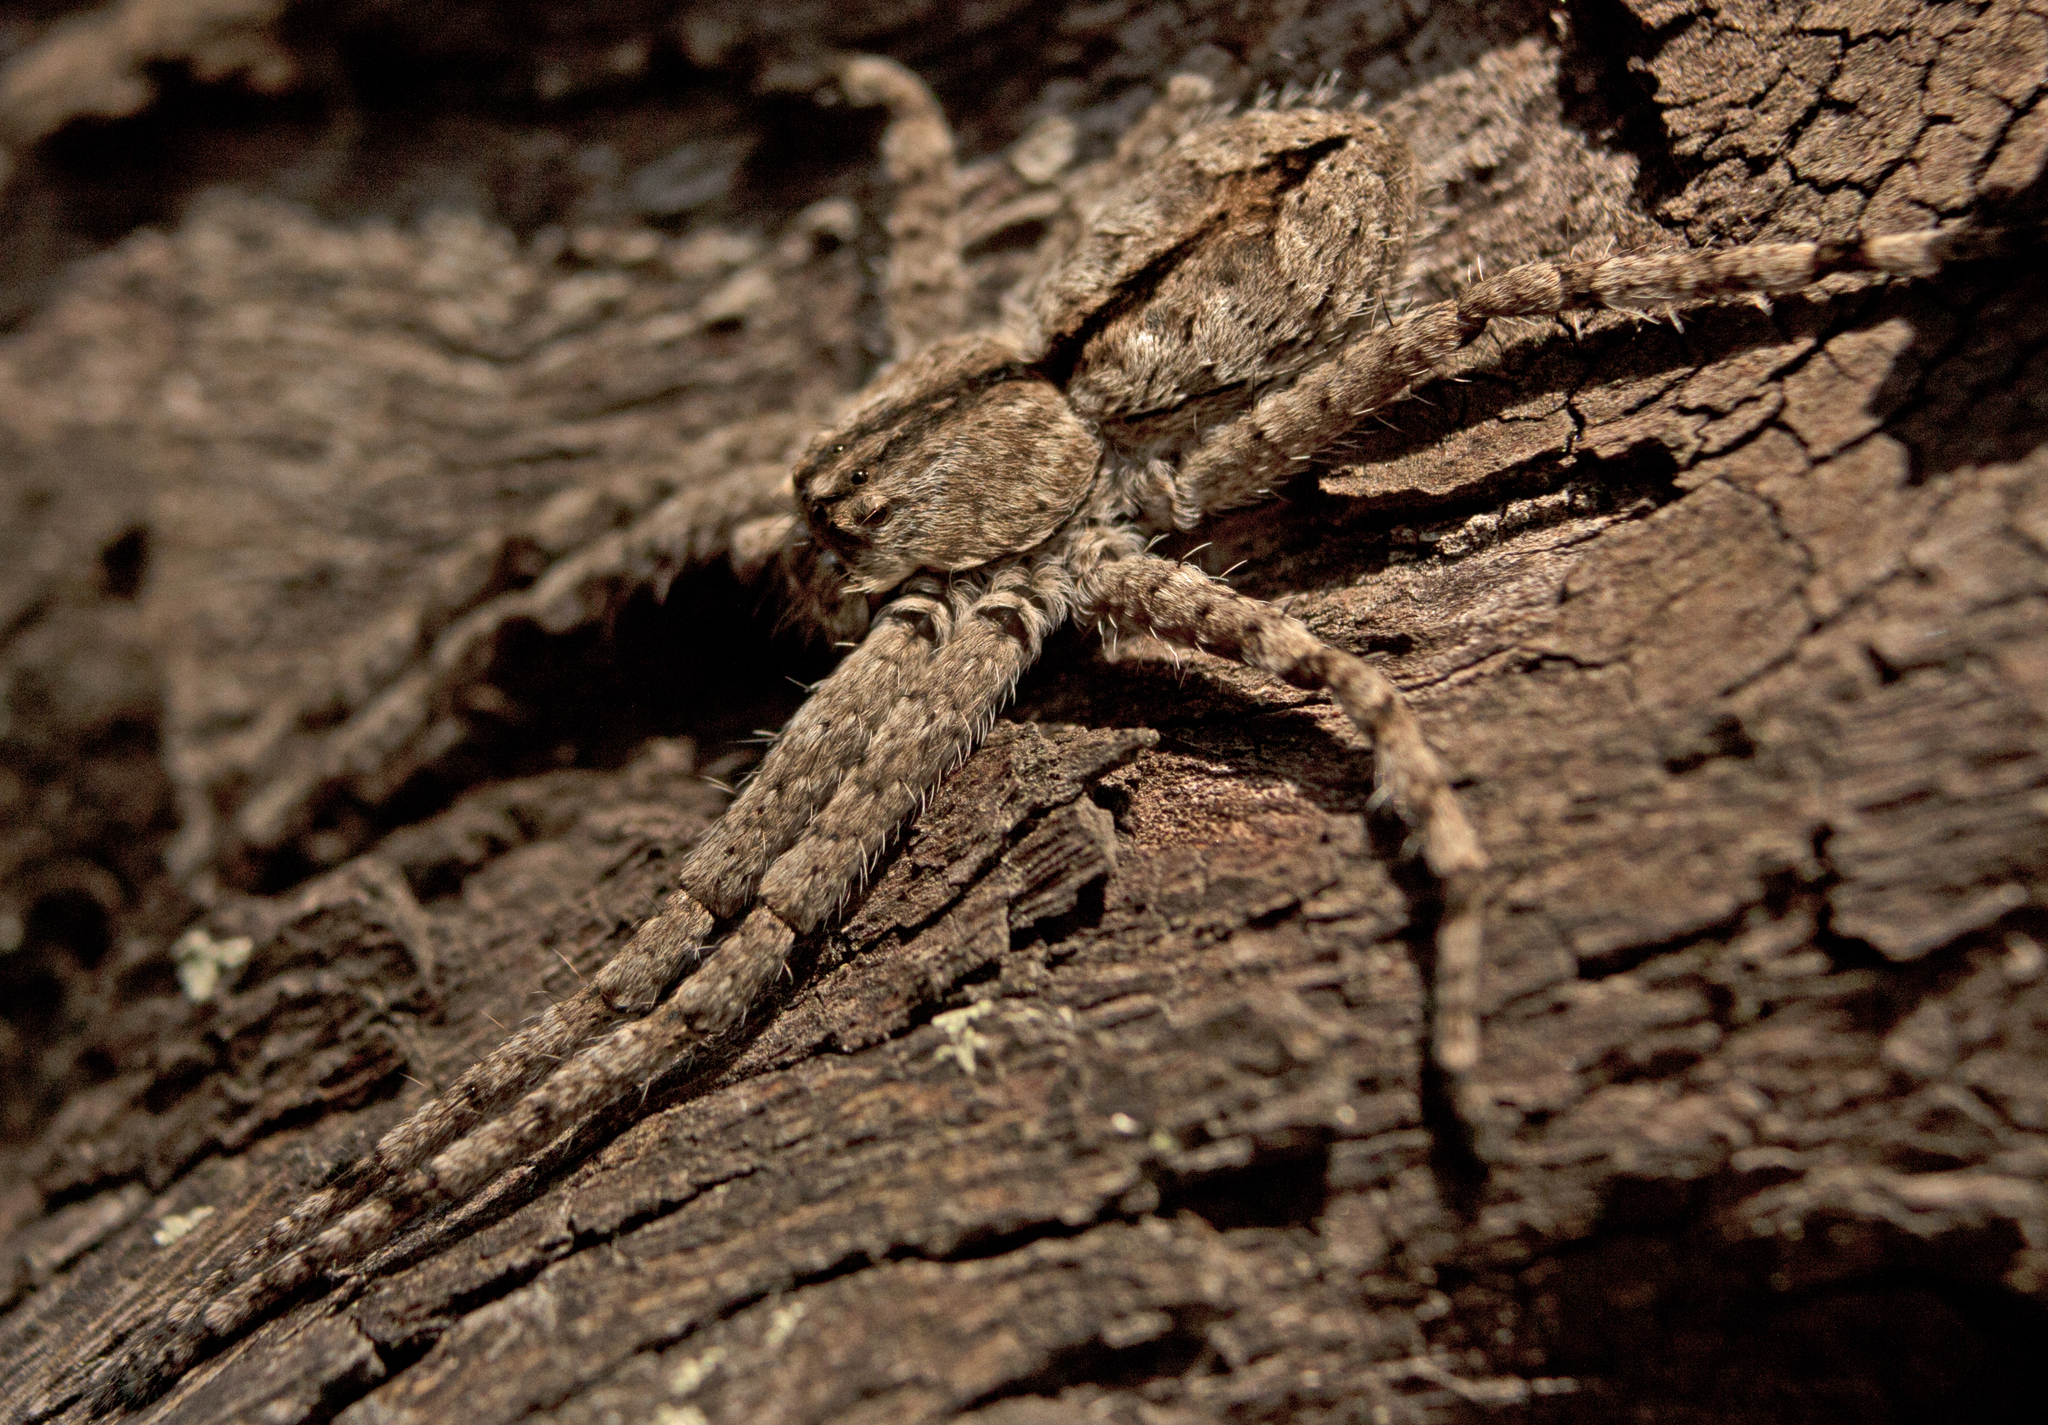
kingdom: Animalia
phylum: Arthropoda
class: Arachnida
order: Araneae
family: Sparassidae
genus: Pediana
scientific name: Pediana regina
